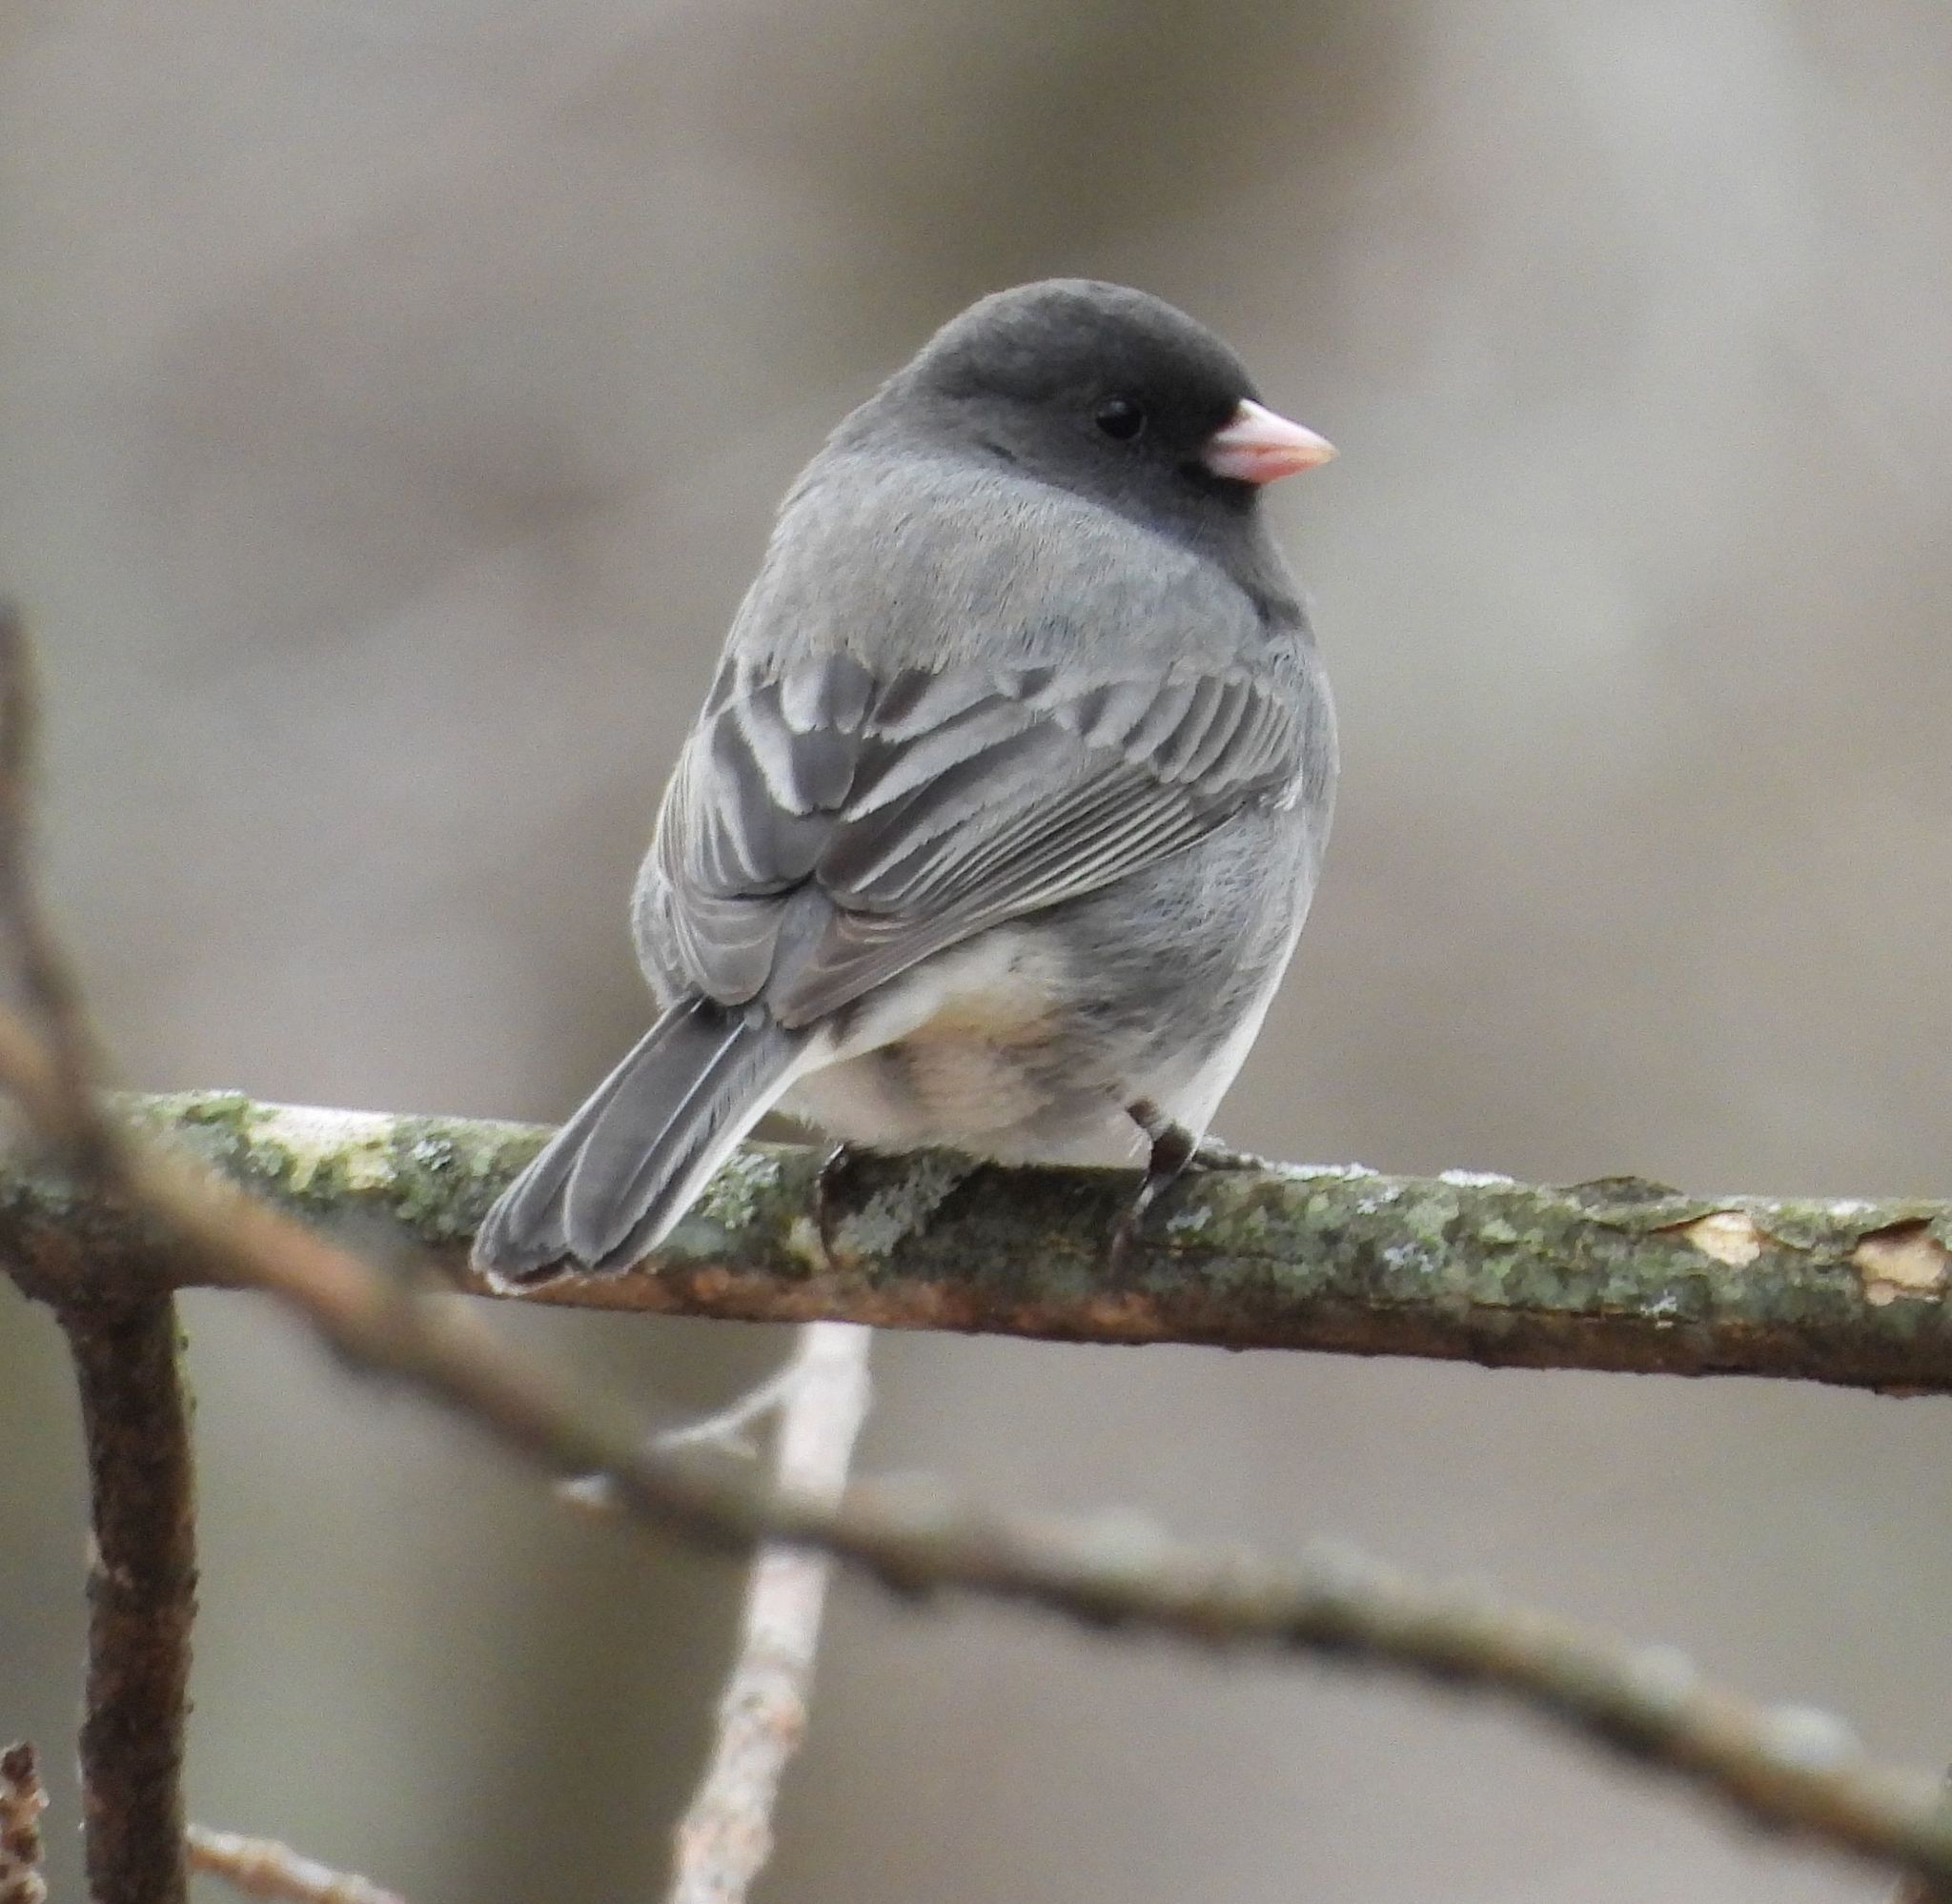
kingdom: Animalia
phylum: Chordata
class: Aves
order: Passeriformes
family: Passerellidae
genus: Junco
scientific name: Junco hyemalis
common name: Dark-eyed junco
